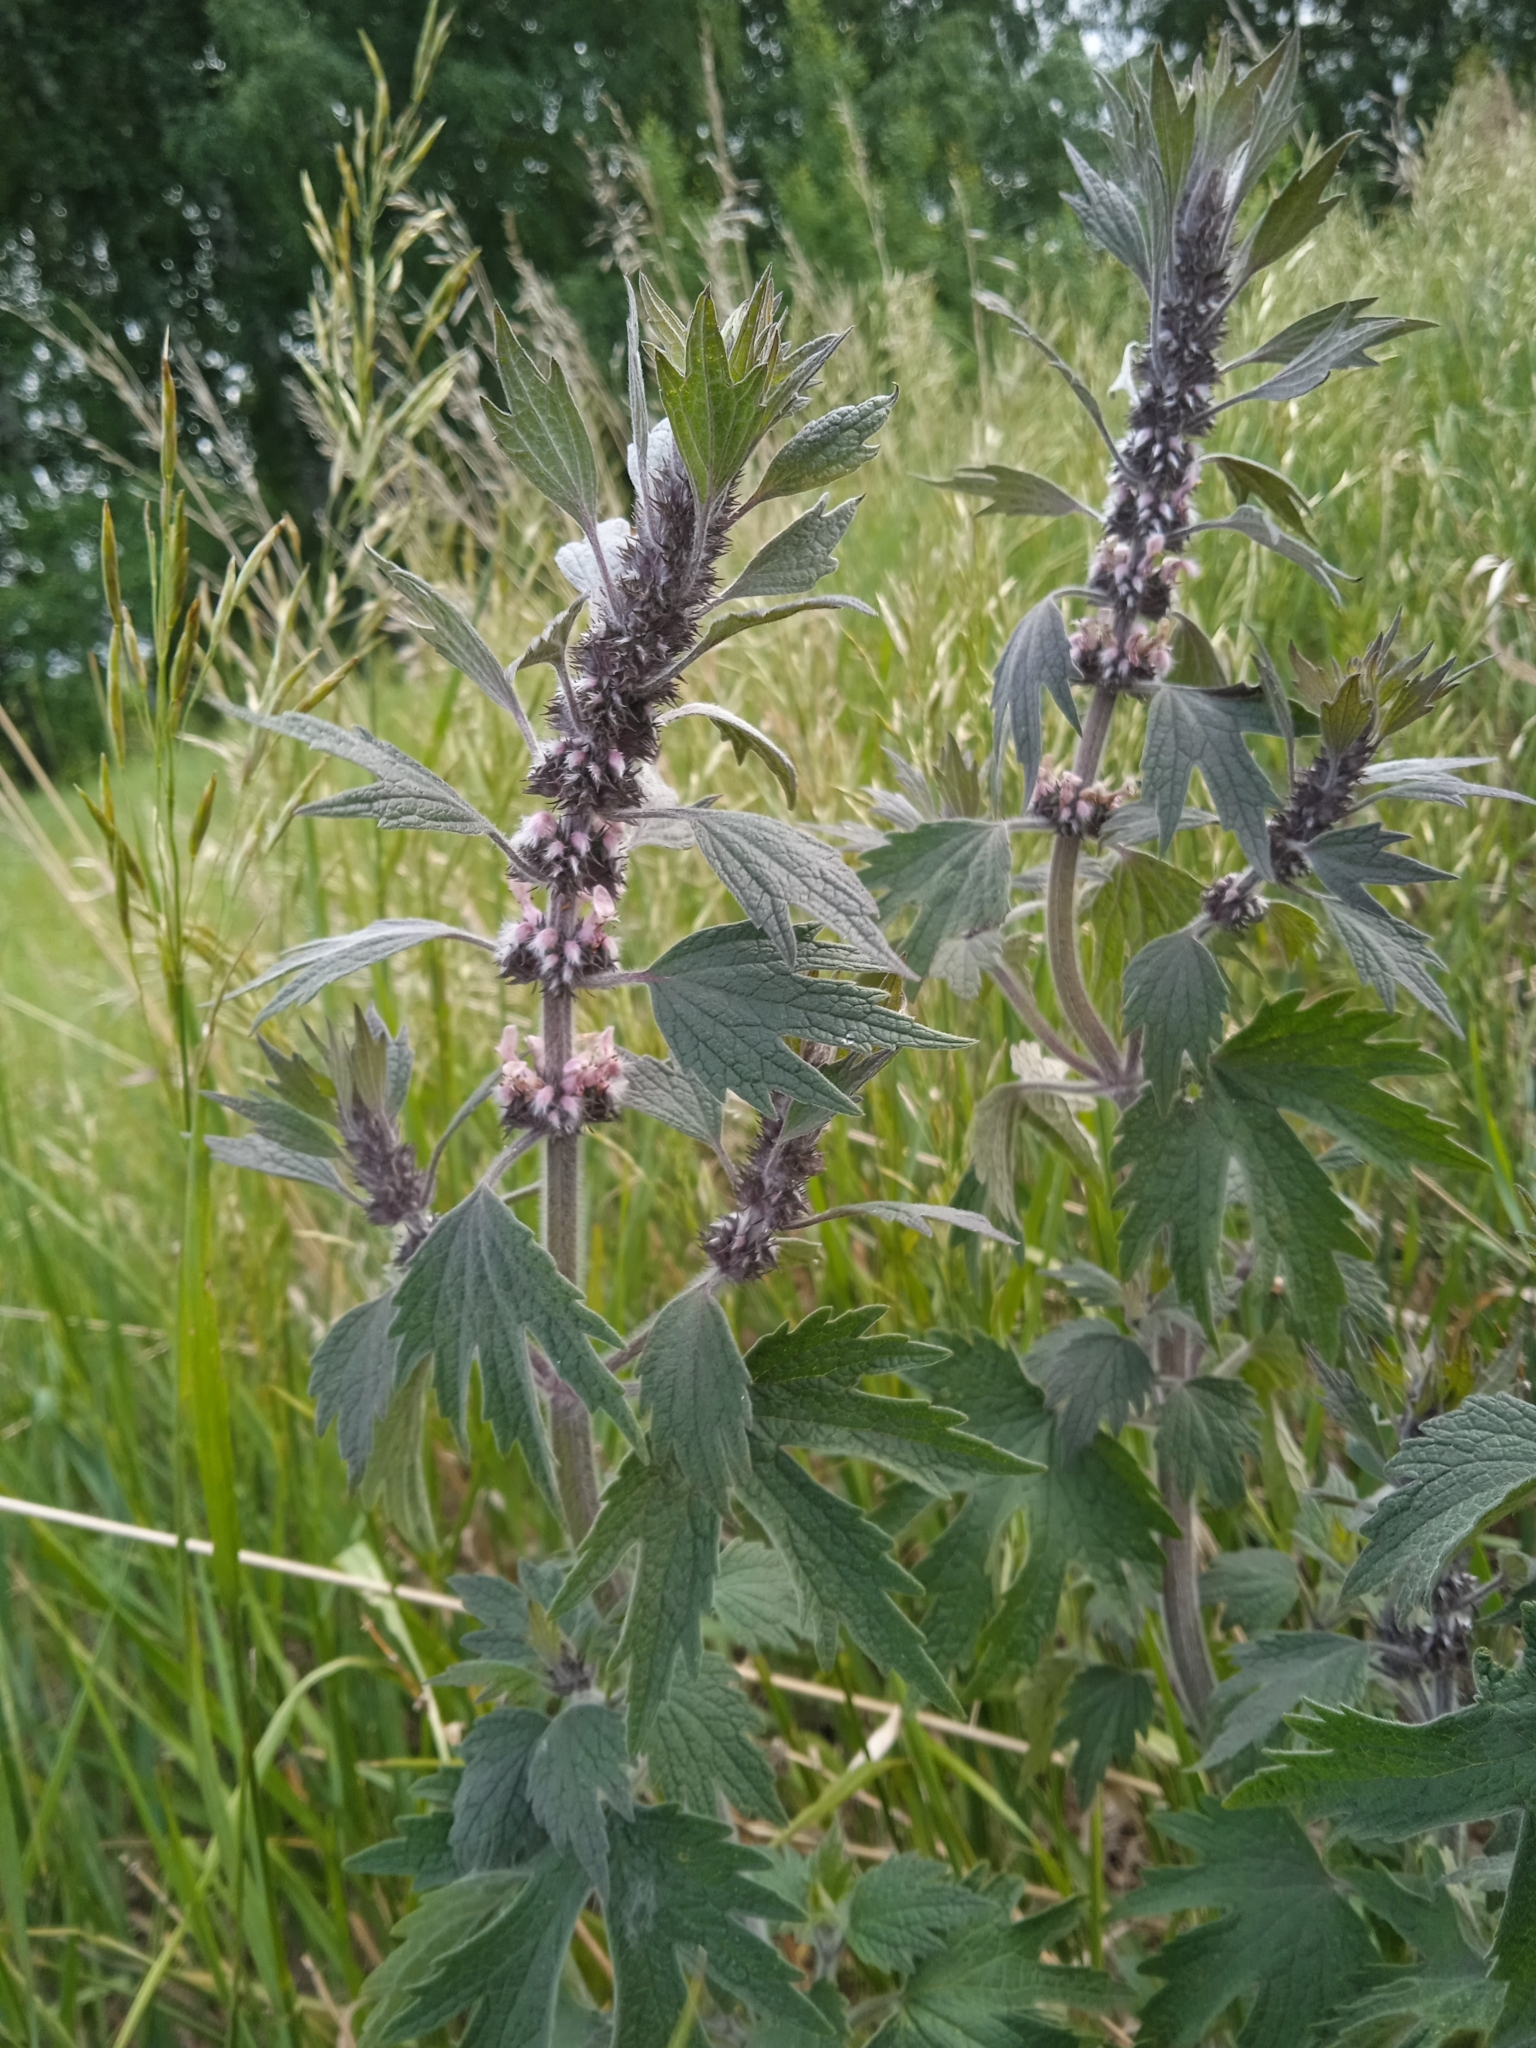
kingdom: Plantae
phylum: Tracheophyta
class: Magnoliopsida
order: Lamiales
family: Lamiaceae
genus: Leonurus
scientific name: Leonurus quinquelobatus
